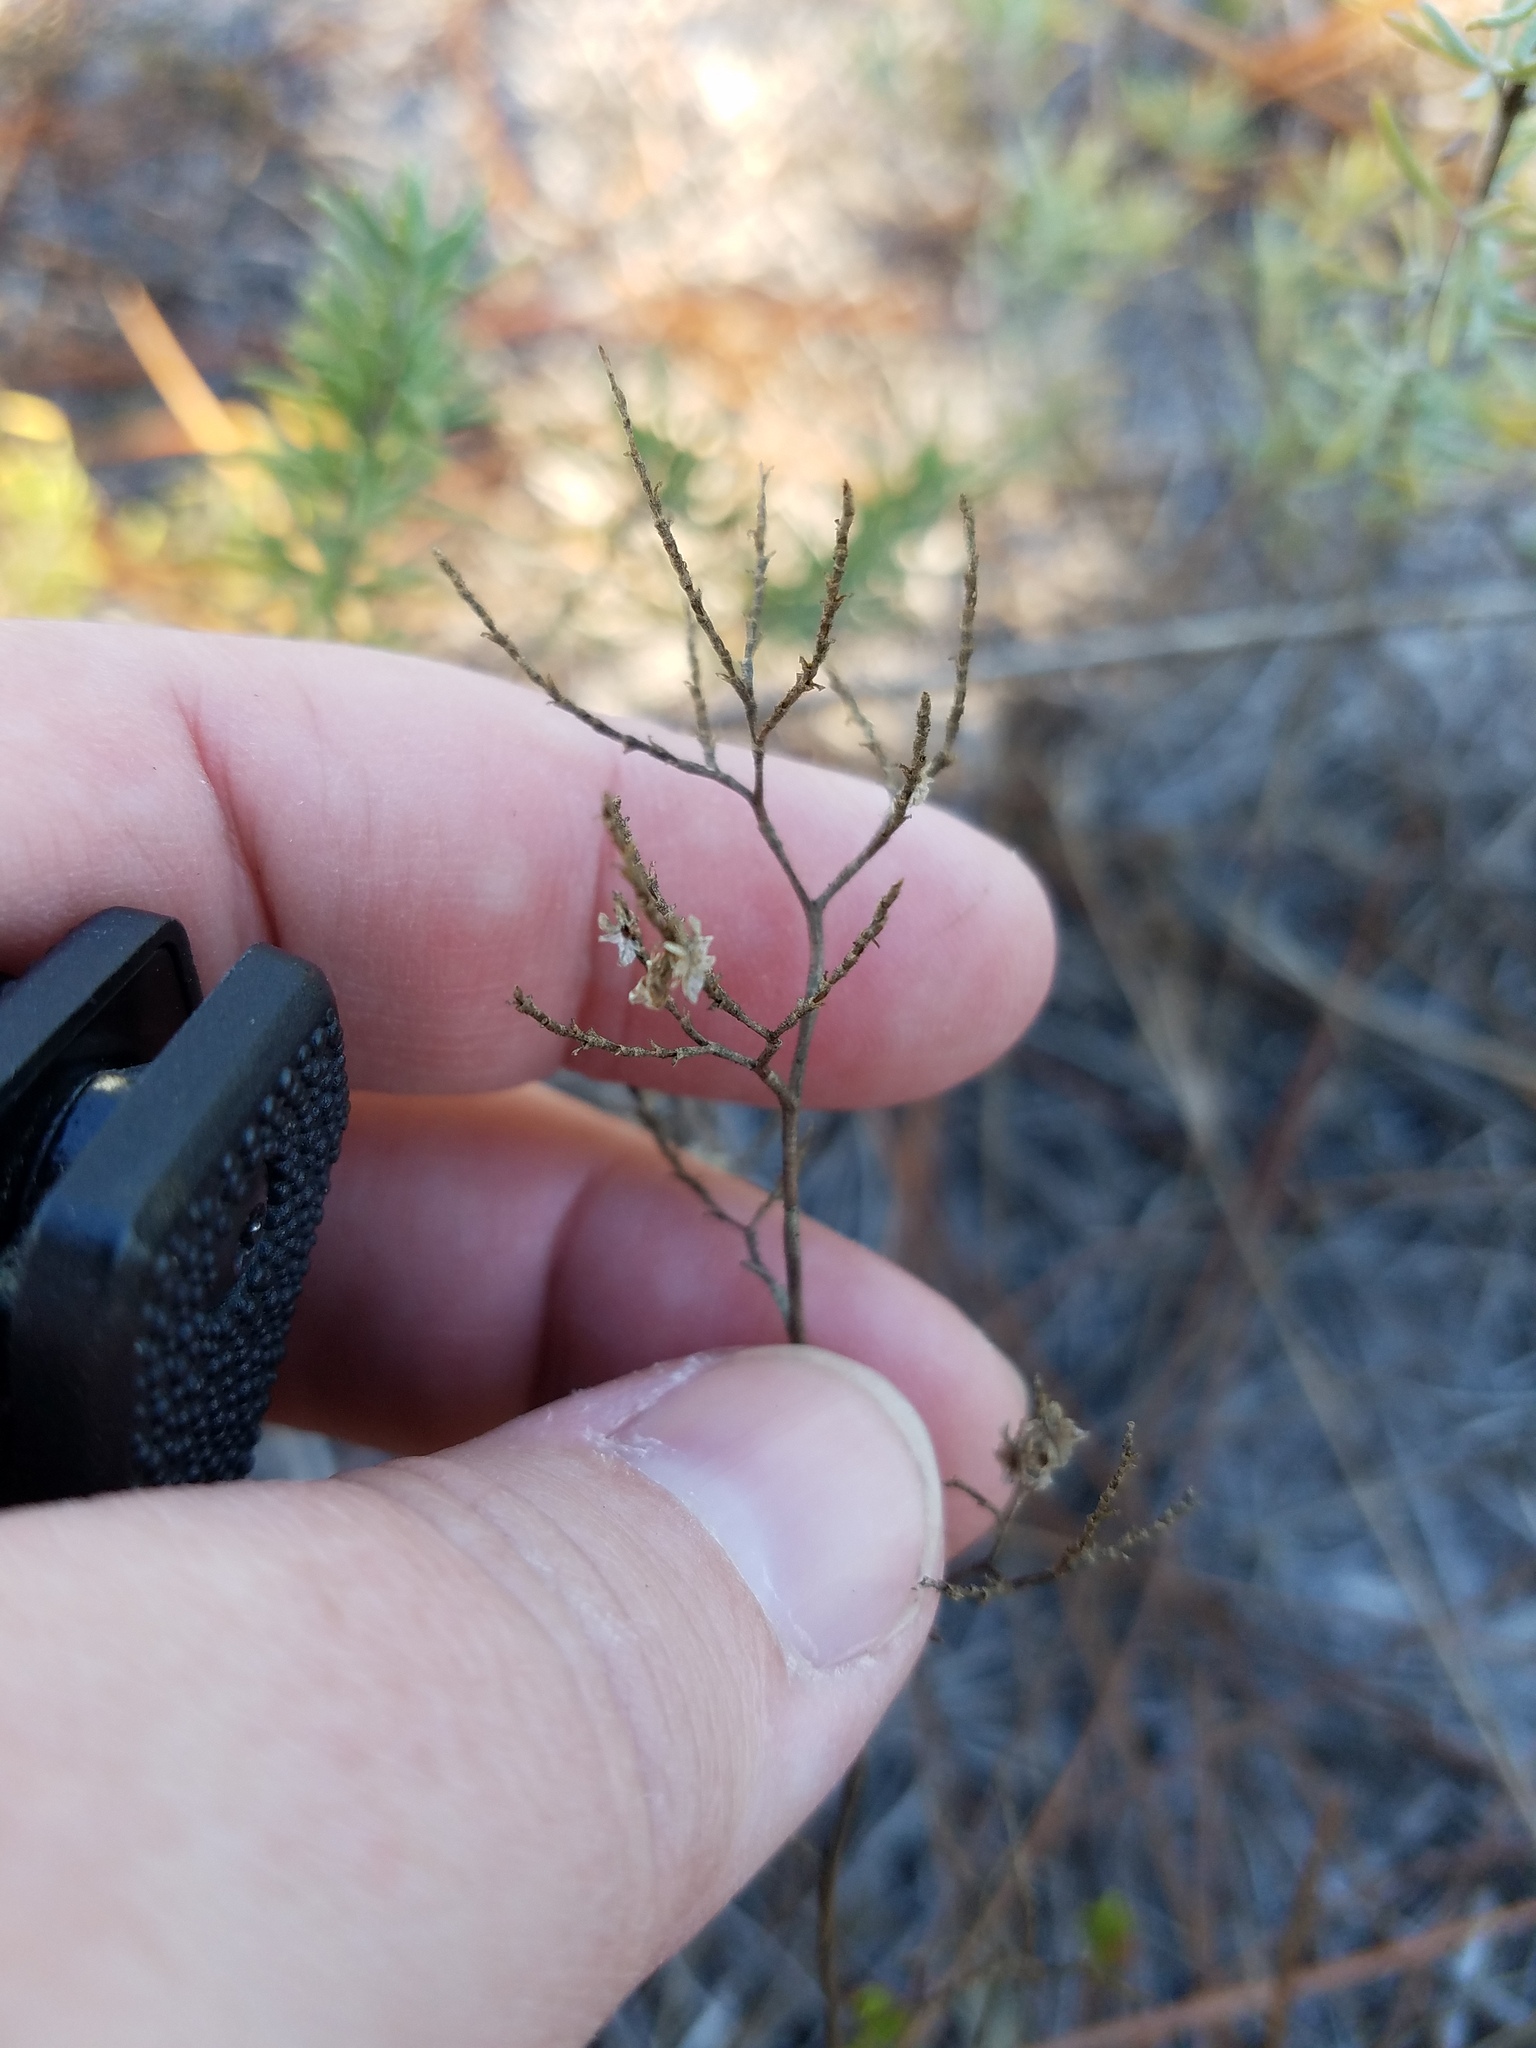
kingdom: Plantae
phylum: Tracheophyta
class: Magnoliopsida
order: Caryophyllales
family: Polygonaceae
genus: Polygonella
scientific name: Polygonella polygama
